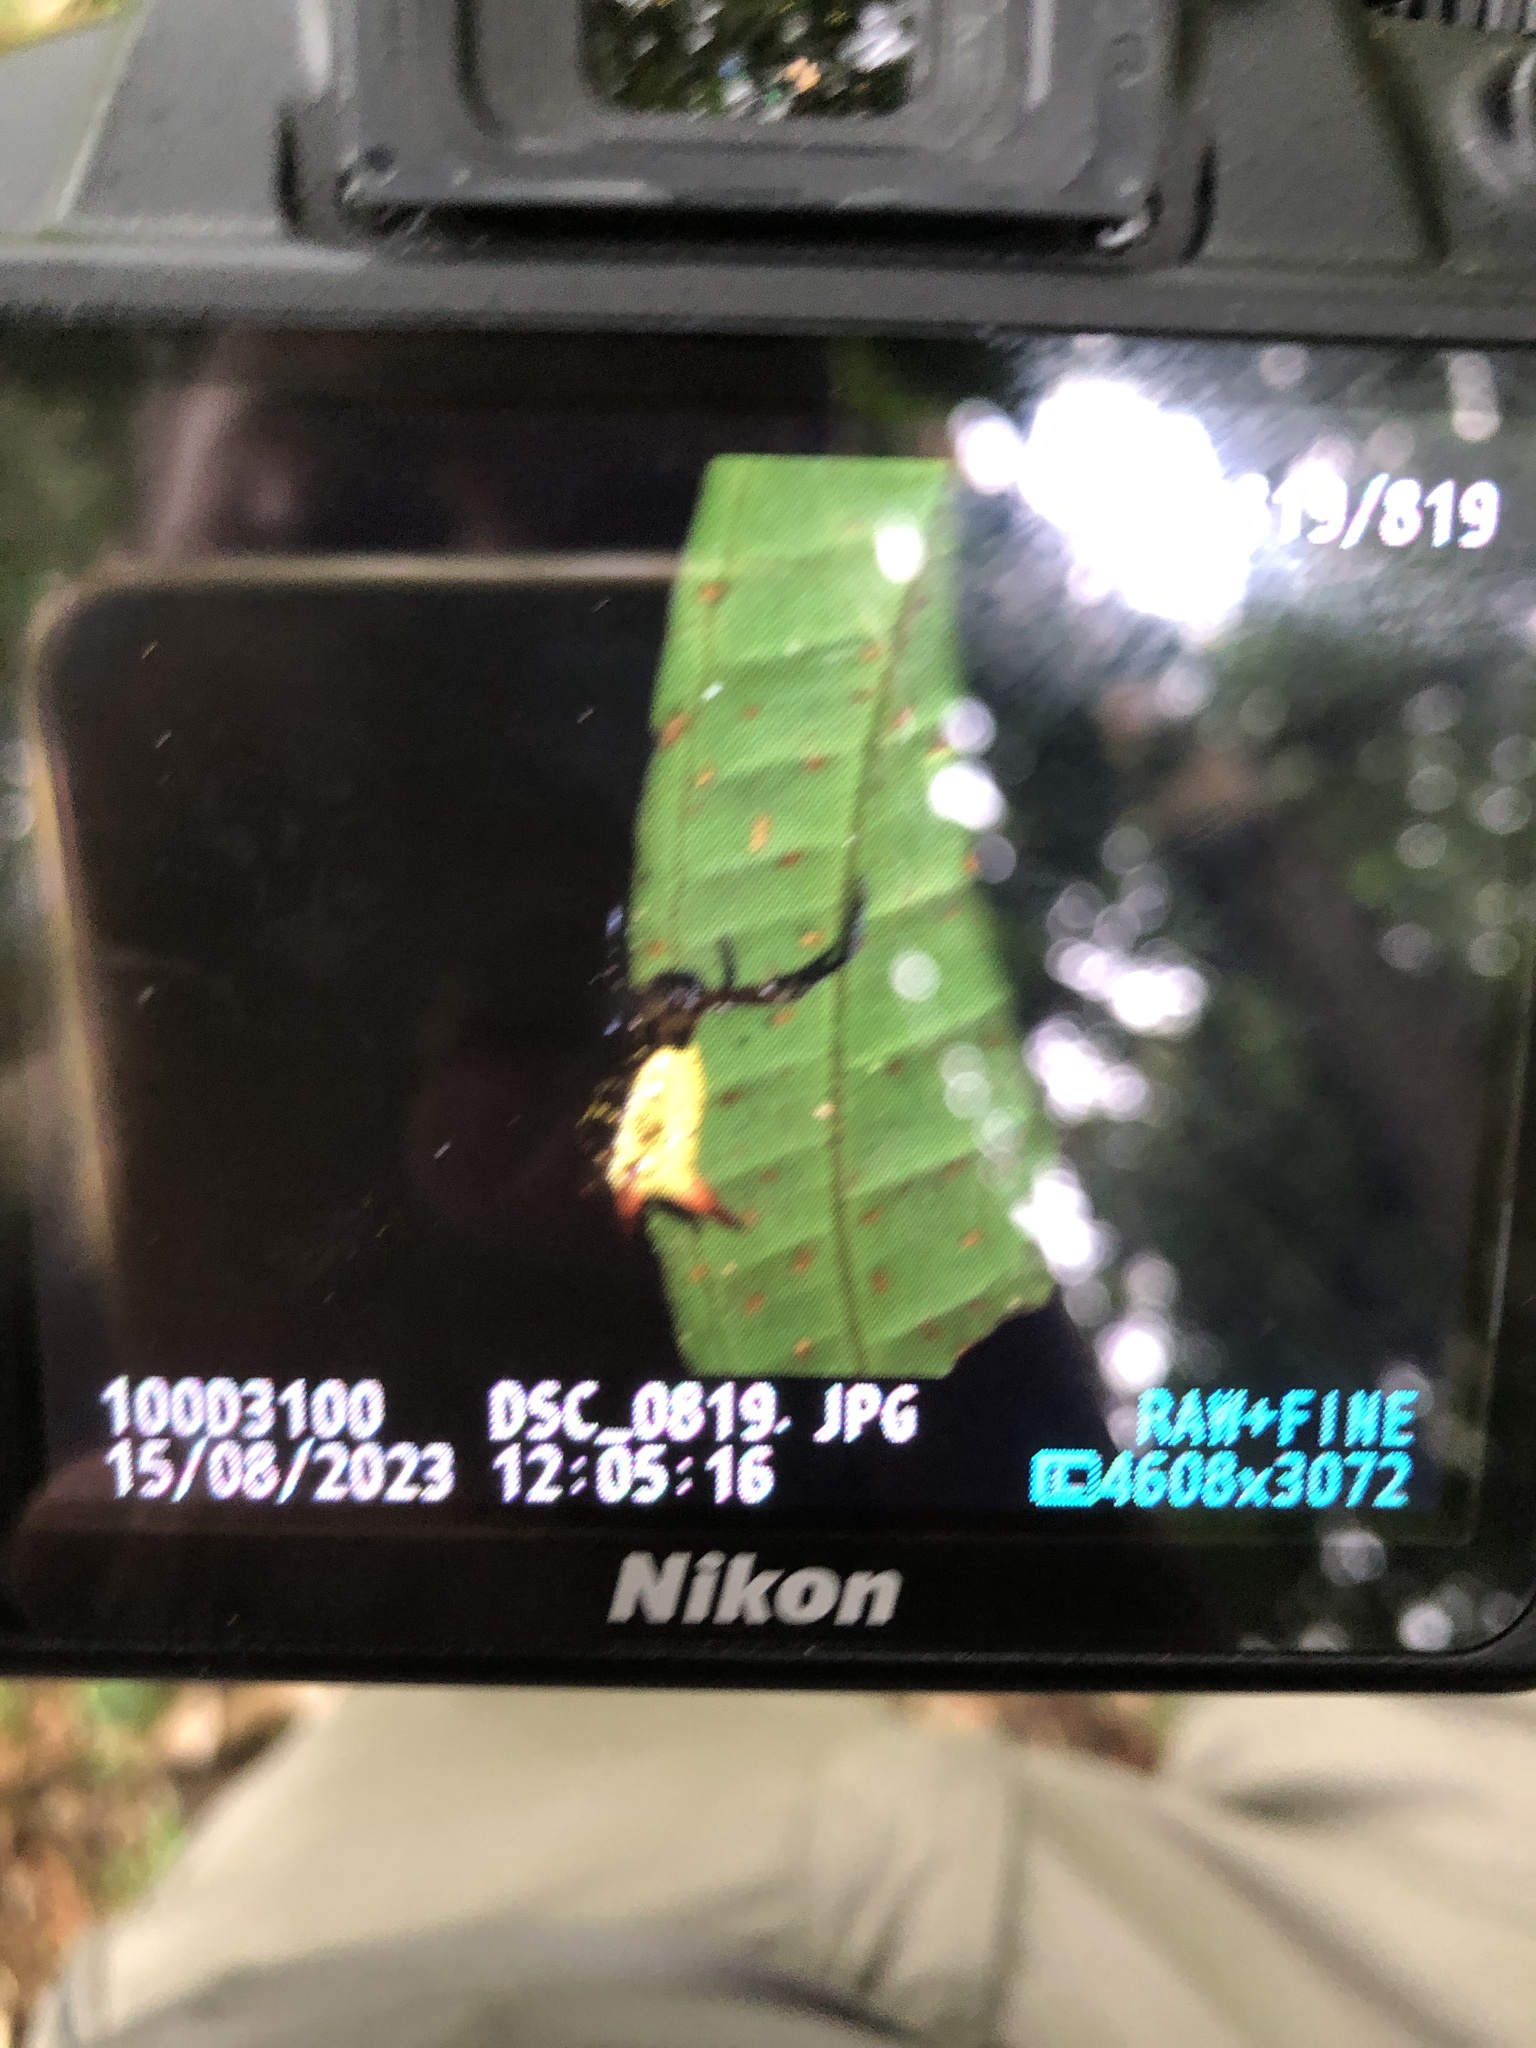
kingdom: Animalia
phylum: Arthropoda
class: Arachnida
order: Araneae
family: Araneidae
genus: Micrathena
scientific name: Micrathena guerini
